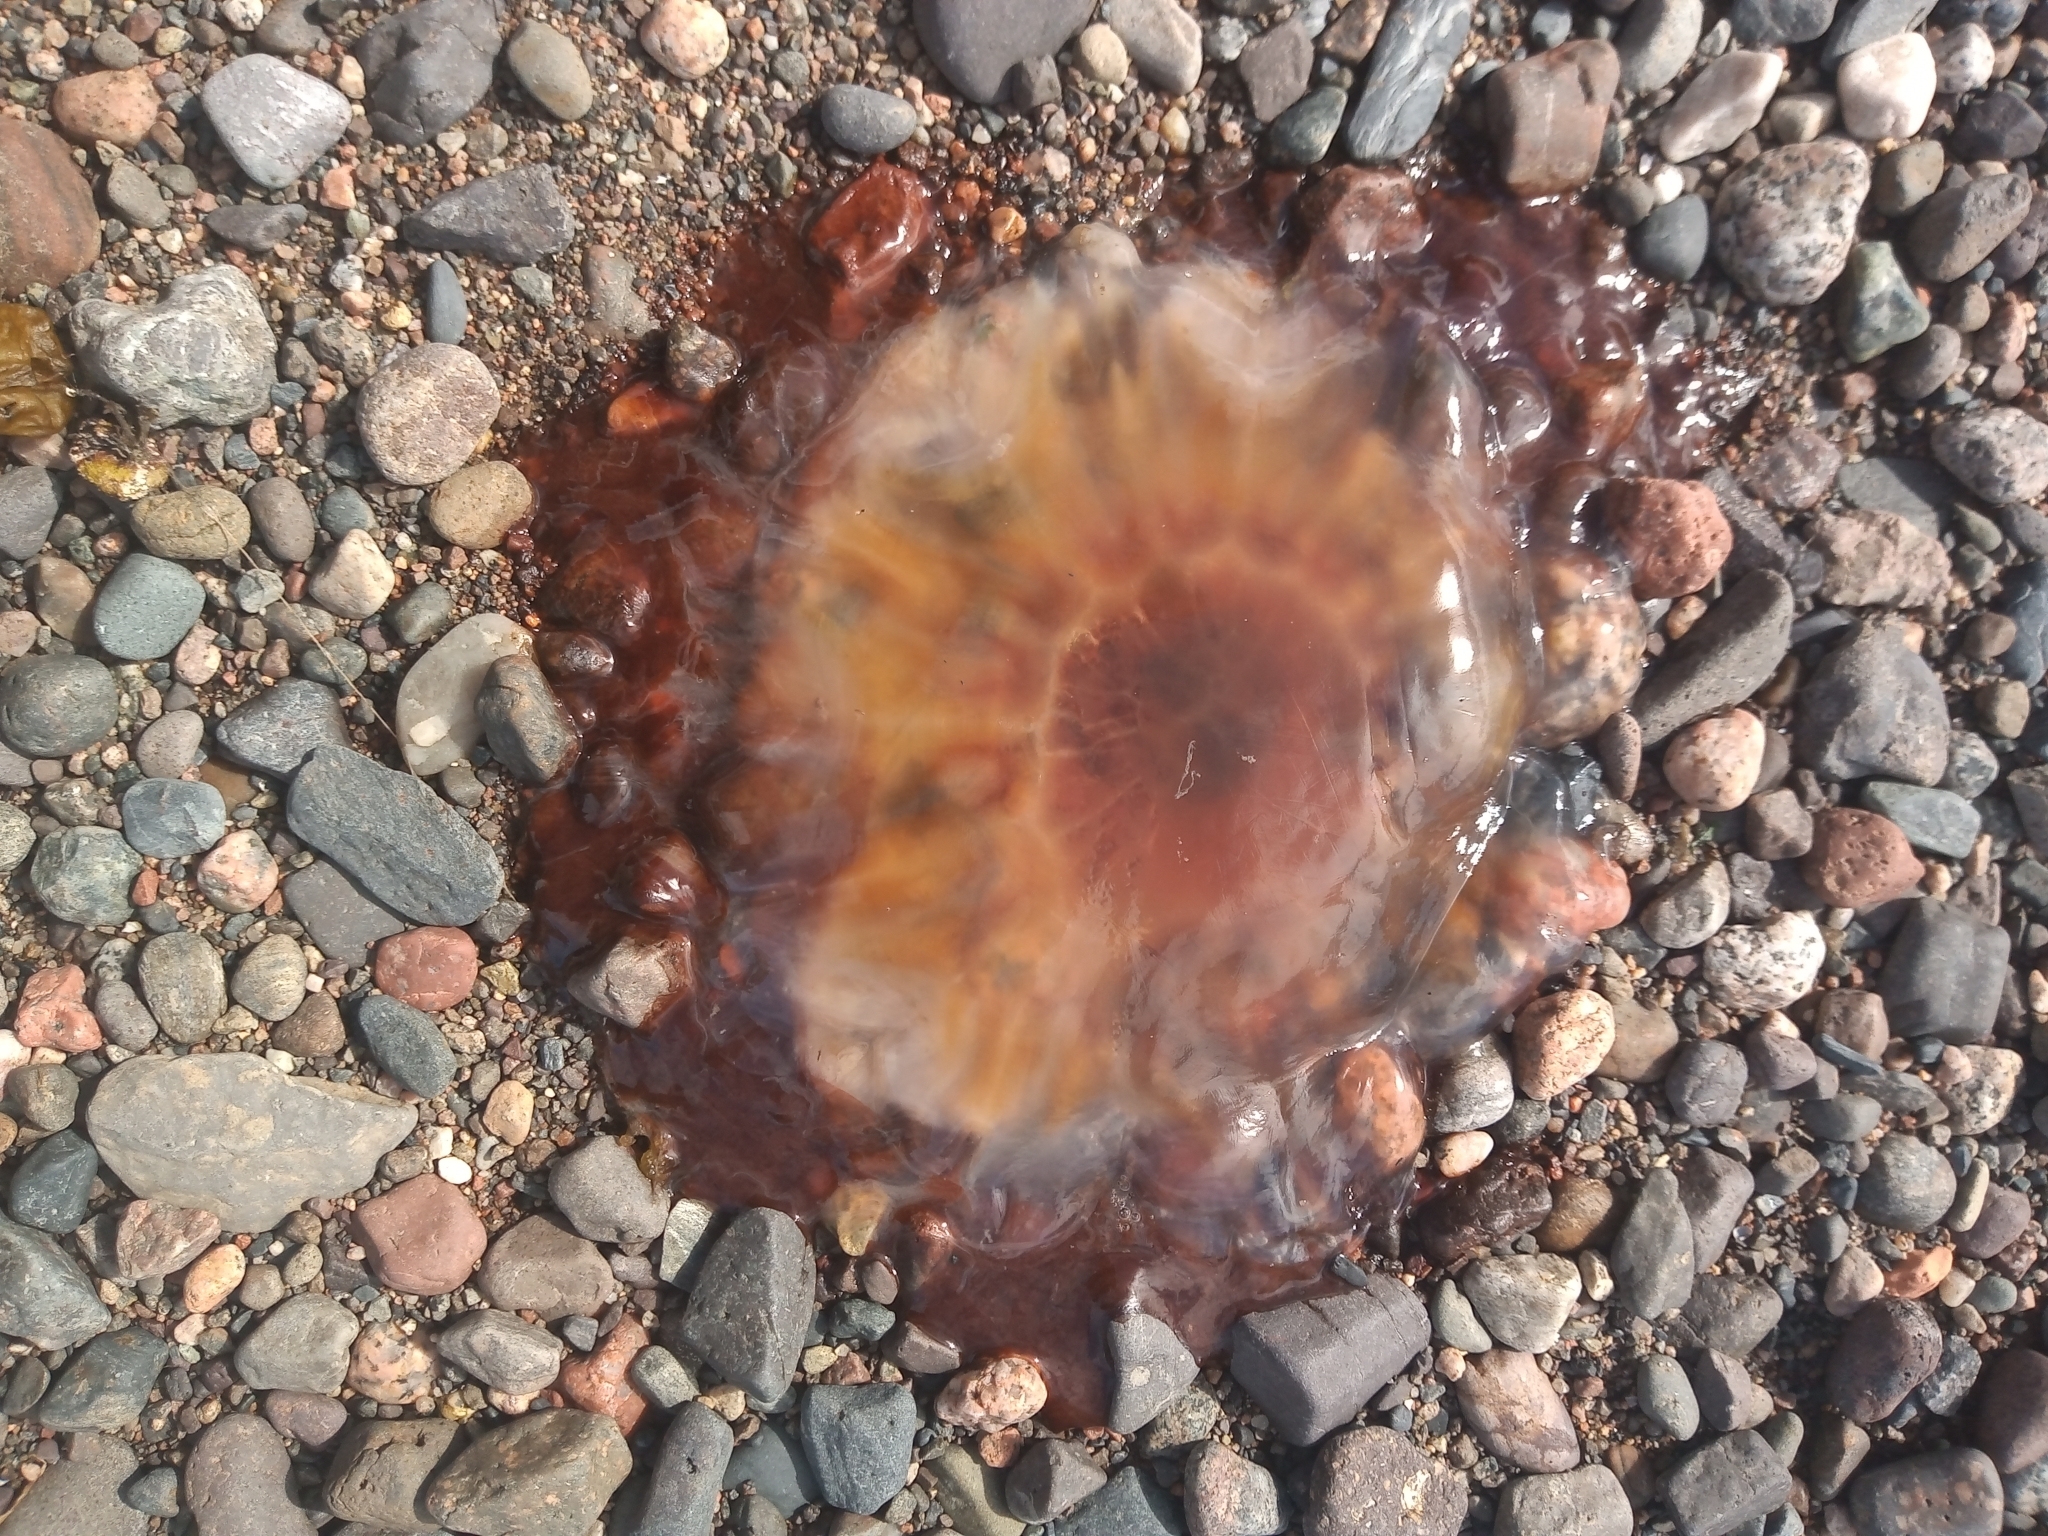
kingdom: Animalia
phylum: Cnidaria
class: Scyphozoa
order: Semaeostomeae
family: Cyaneidae
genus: Cyanea
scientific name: Cyanea capillata
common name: Lion's mane jellyfish
